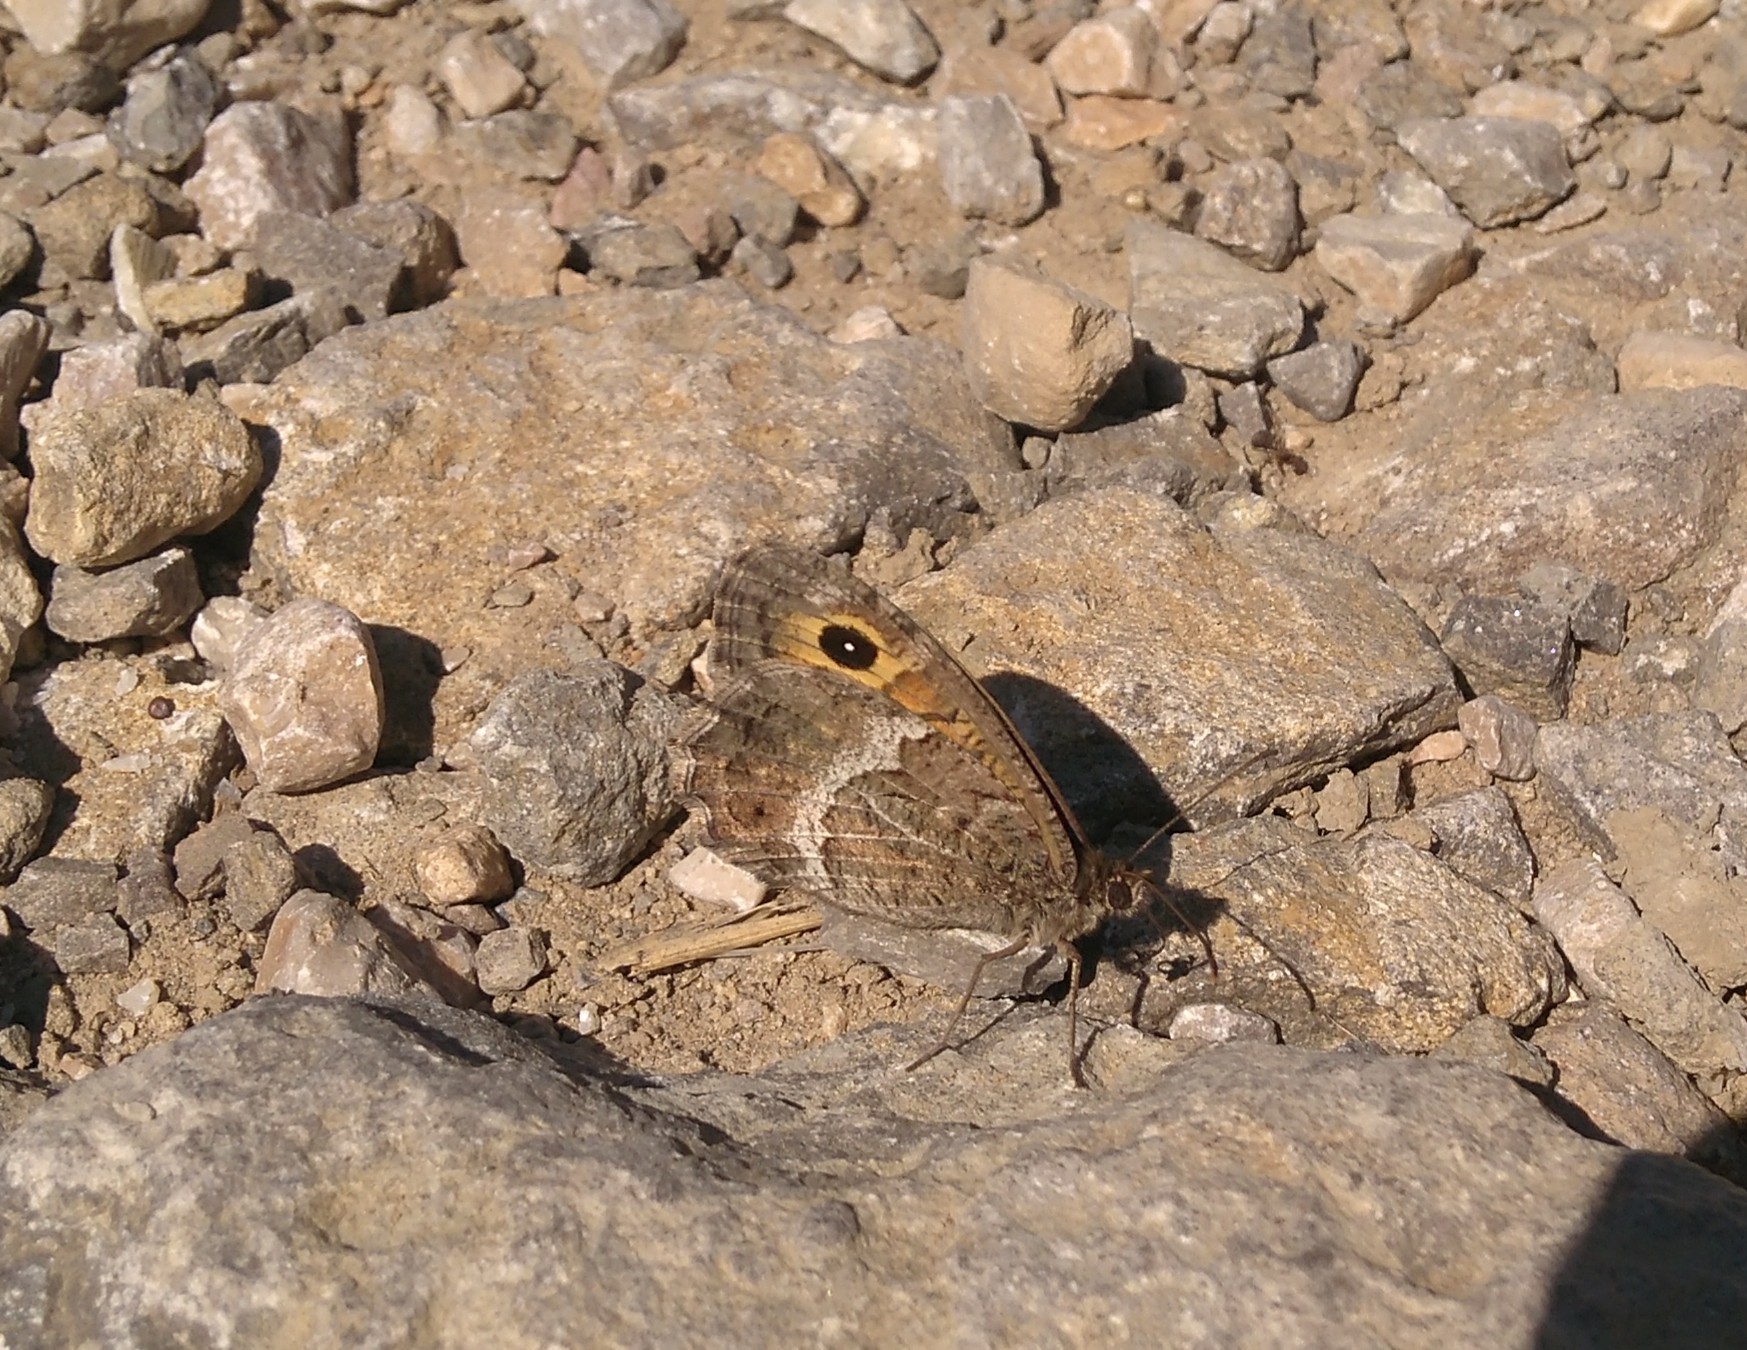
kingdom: Animalia
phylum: Arthropoda
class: Insecta
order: Lepidoptera
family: Nymphalidae
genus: Arethusana
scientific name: Arethusana arethusa
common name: False grayling
